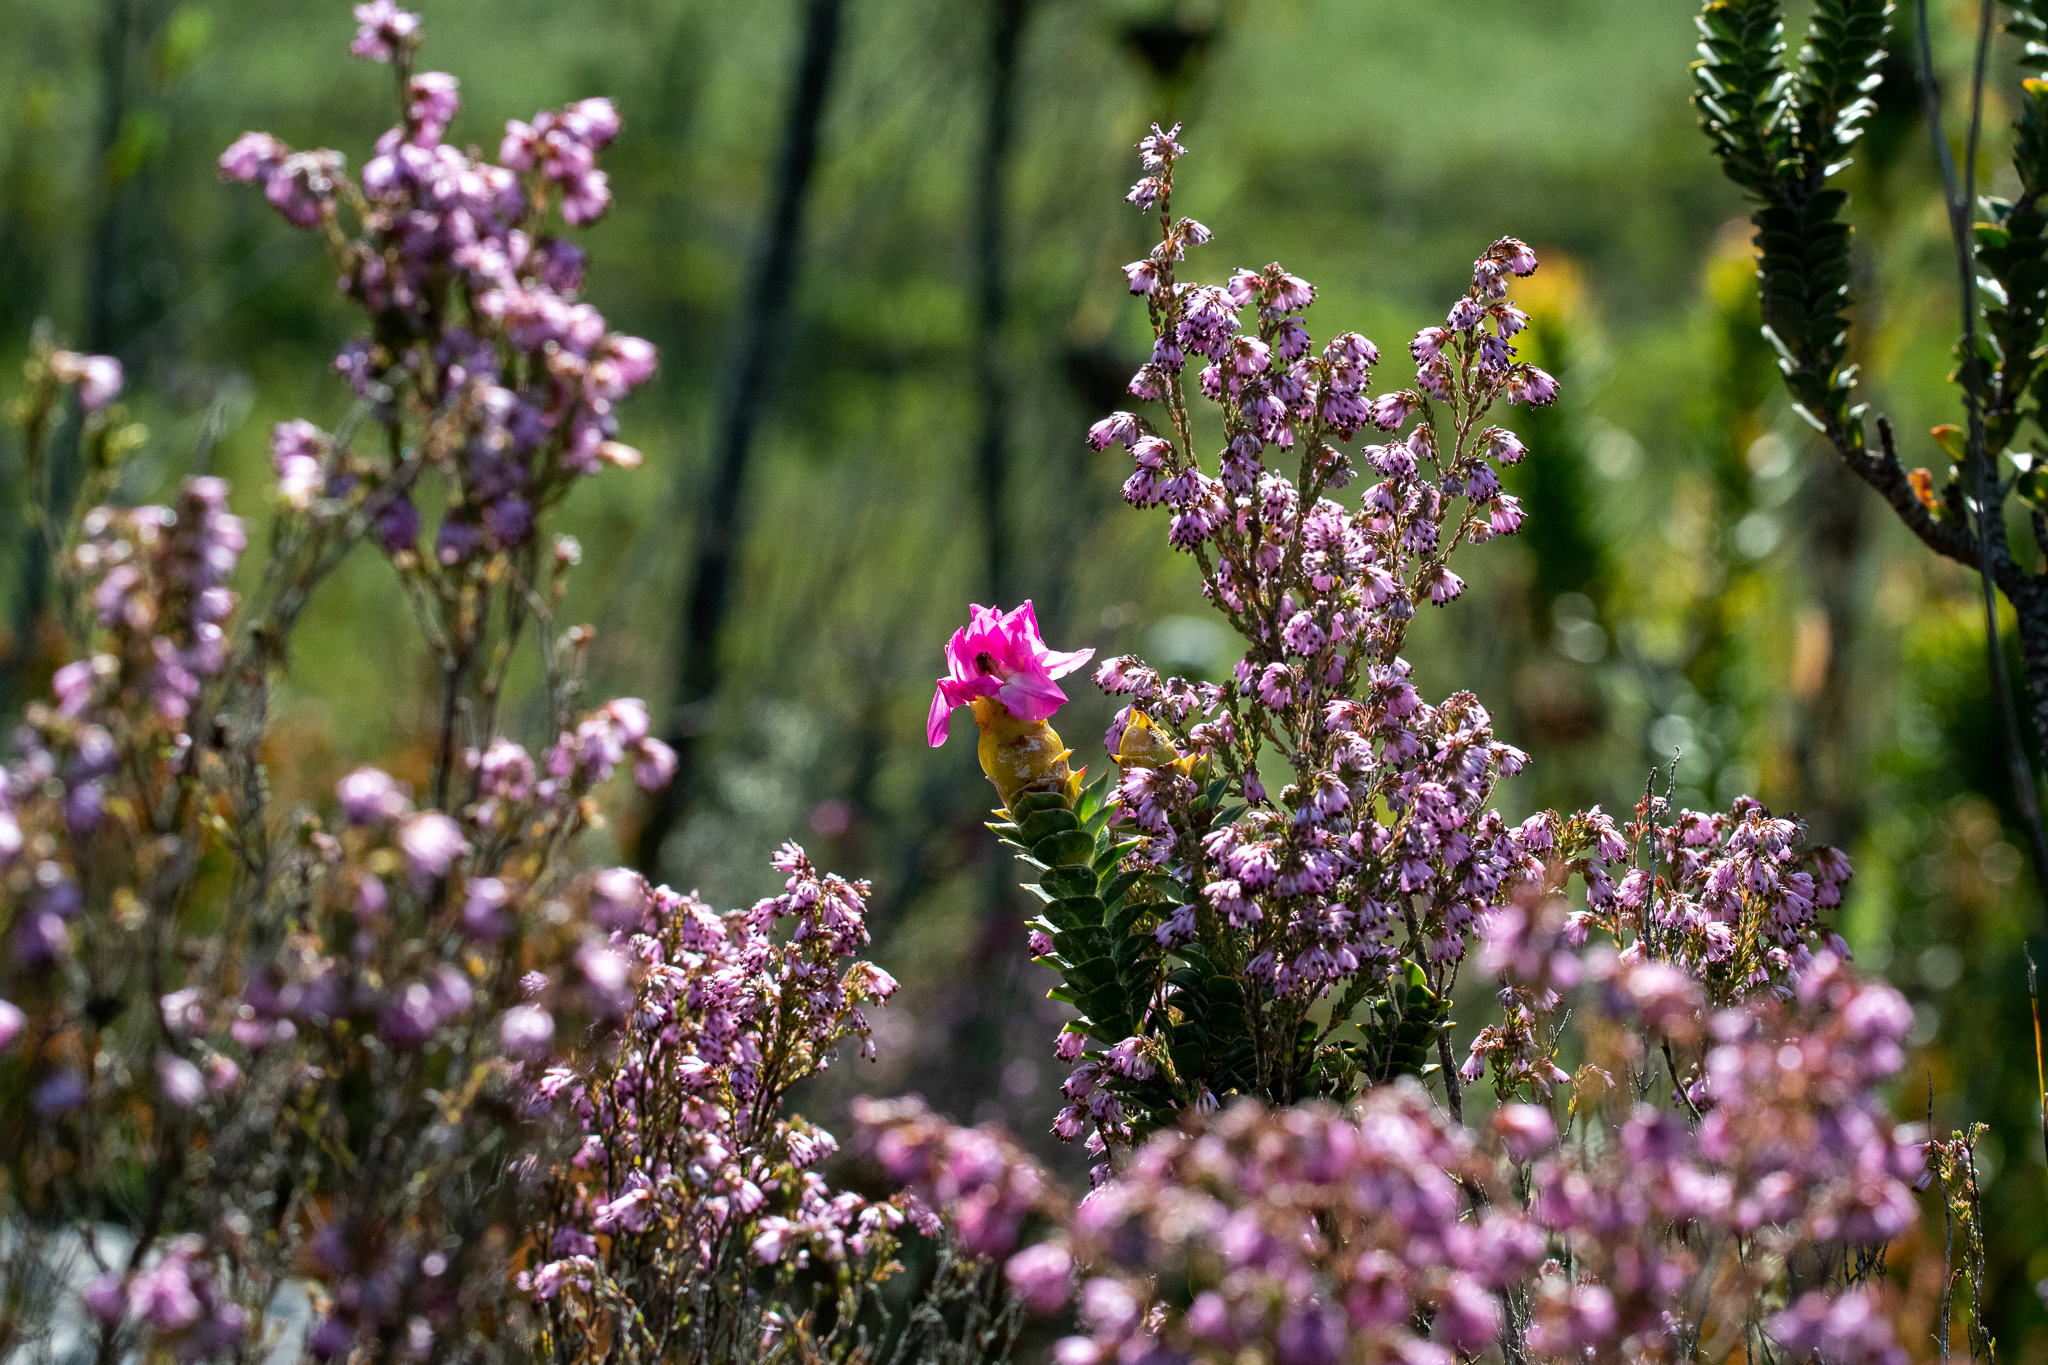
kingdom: Plantae
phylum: Tracheophyta
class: Magnoliopsida
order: Myrtales
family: Penaeaceae
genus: Saltera
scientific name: Saltera sarcocolla
